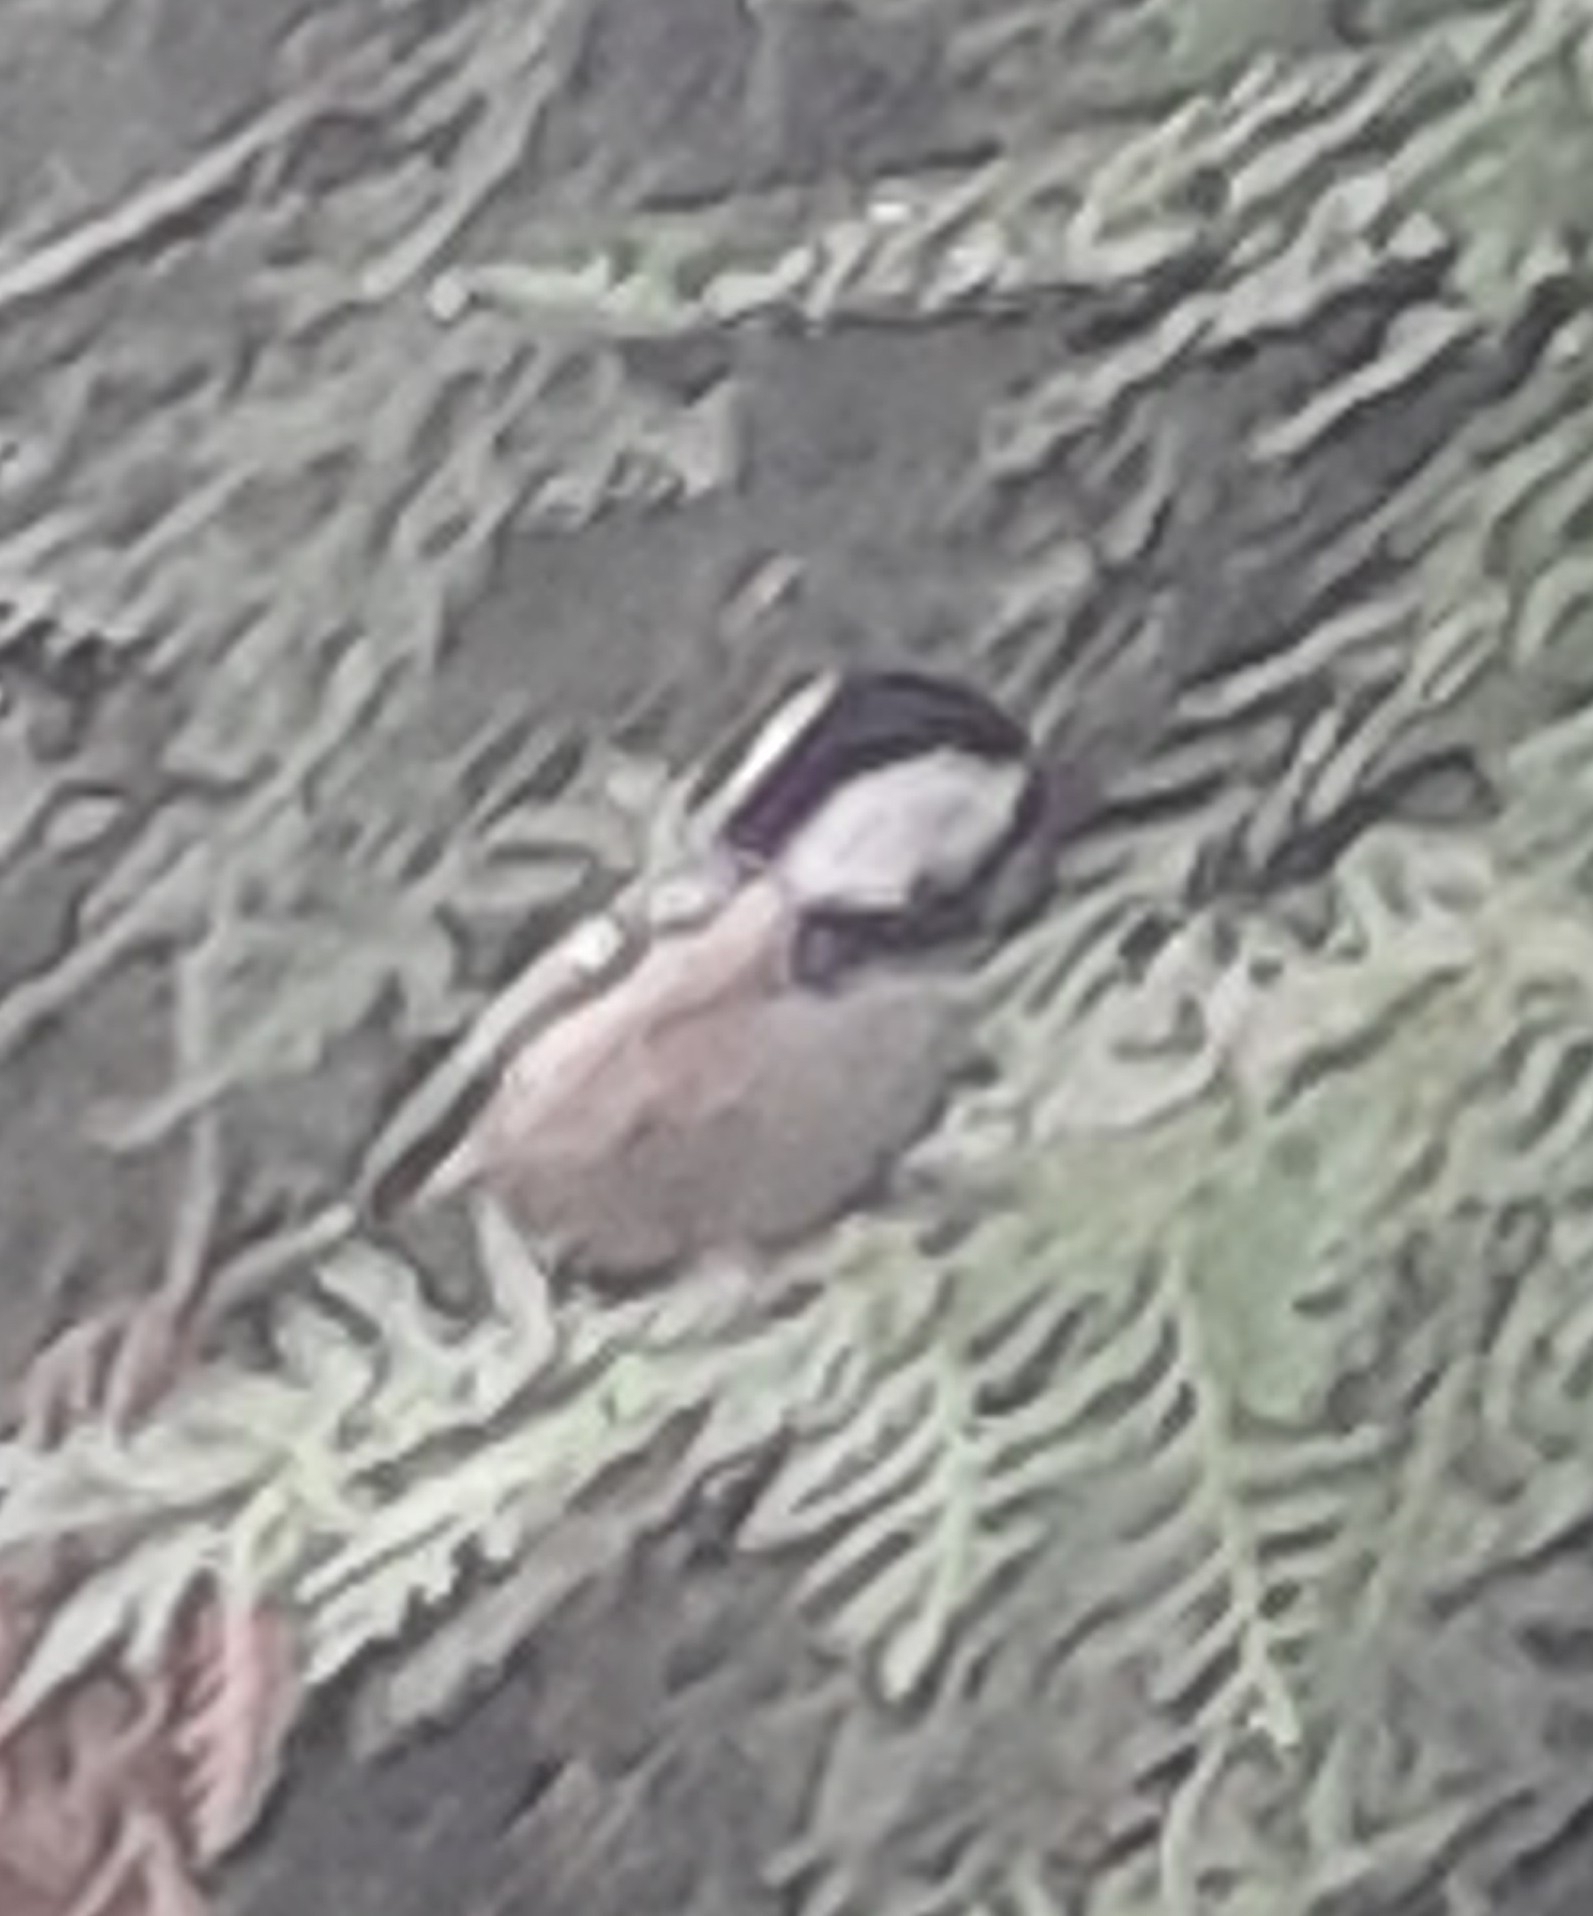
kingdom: Animalia
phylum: Chordata
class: Aves
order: Passeriformes
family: Paridae
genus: Periparus
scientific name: Periparus ater
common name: Coal tit
